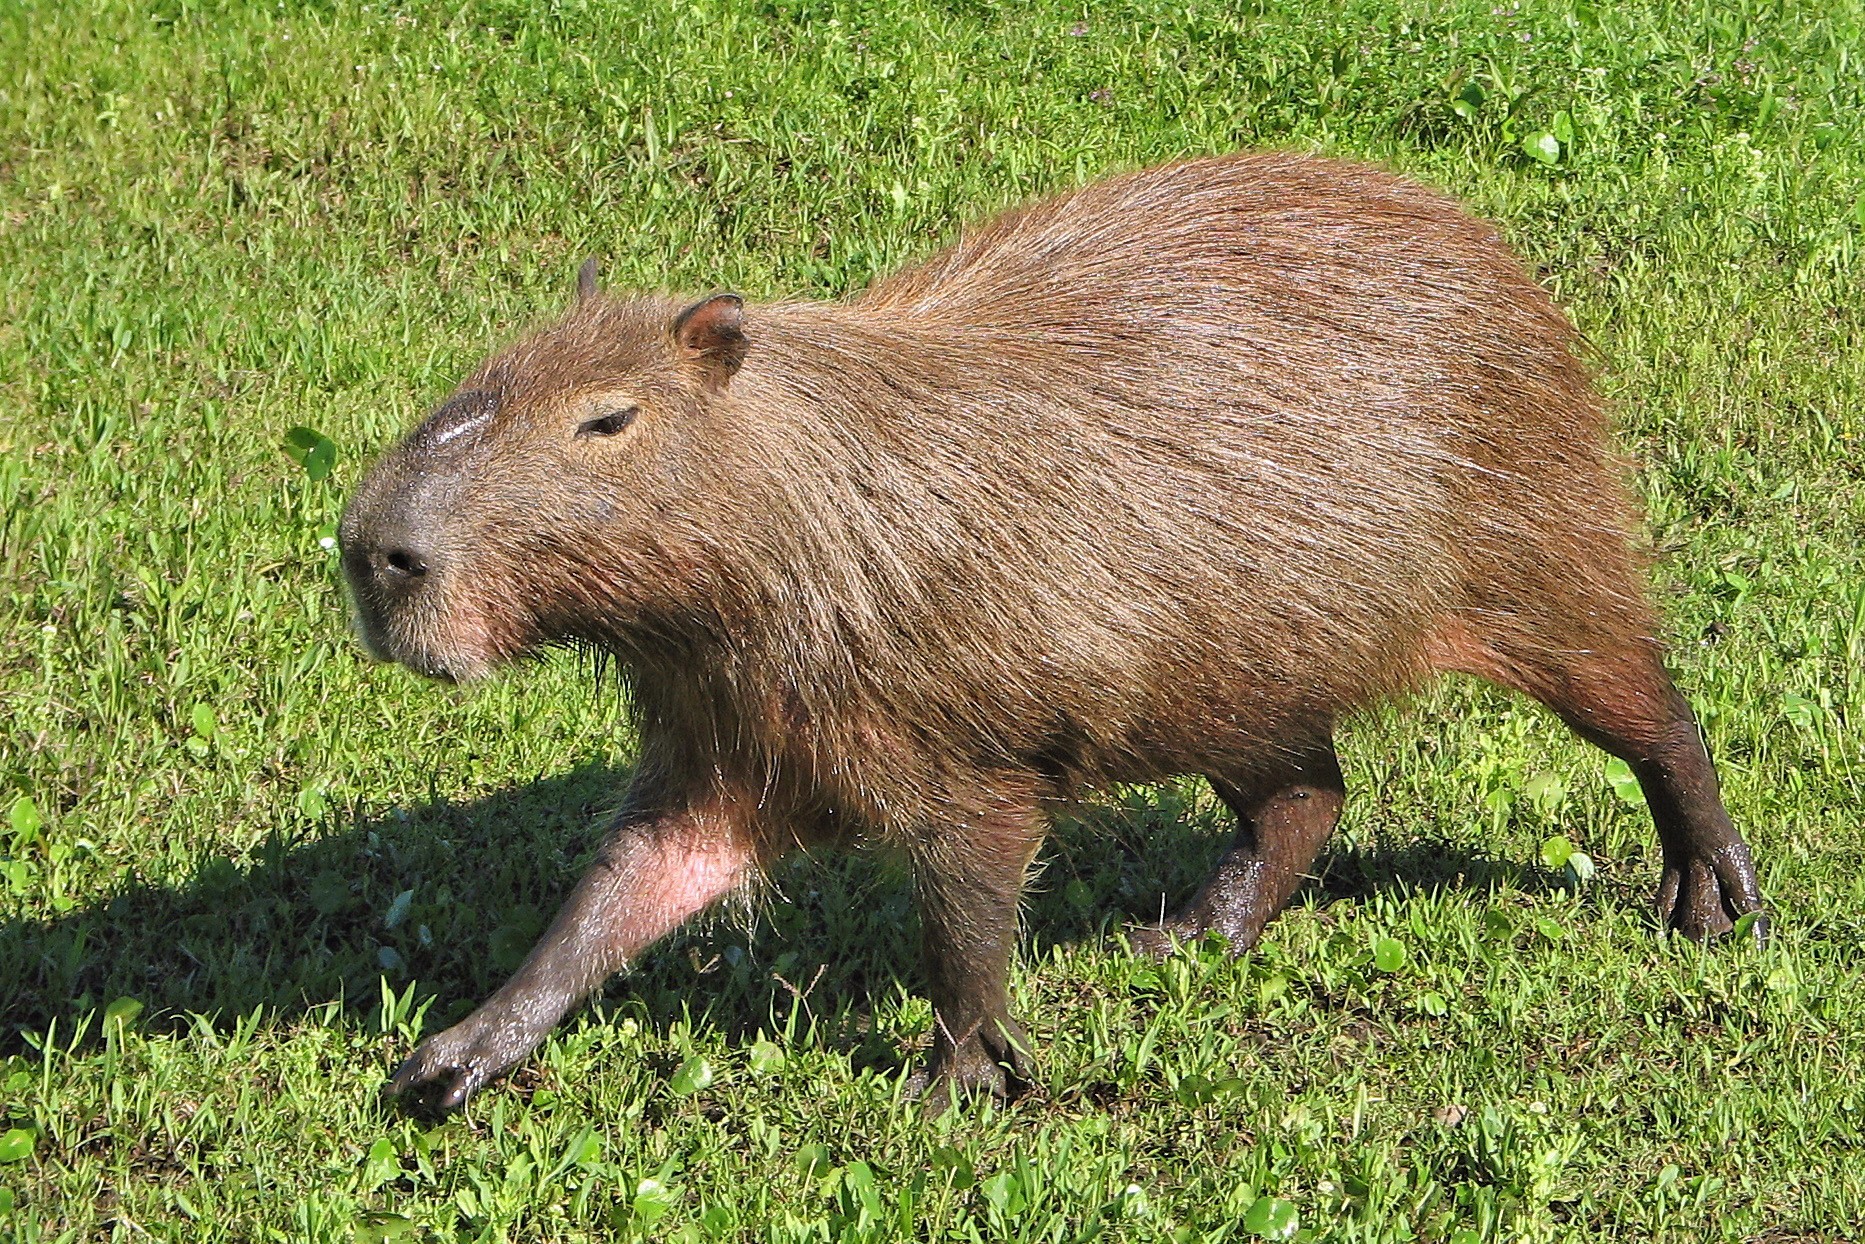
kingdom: Animalia
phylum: Chordata
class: Mammalia
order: Rodentia
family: Caviidae
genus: Hydrochoerus
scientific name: Hydrochoerus hydrochaeris
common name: Capybara
